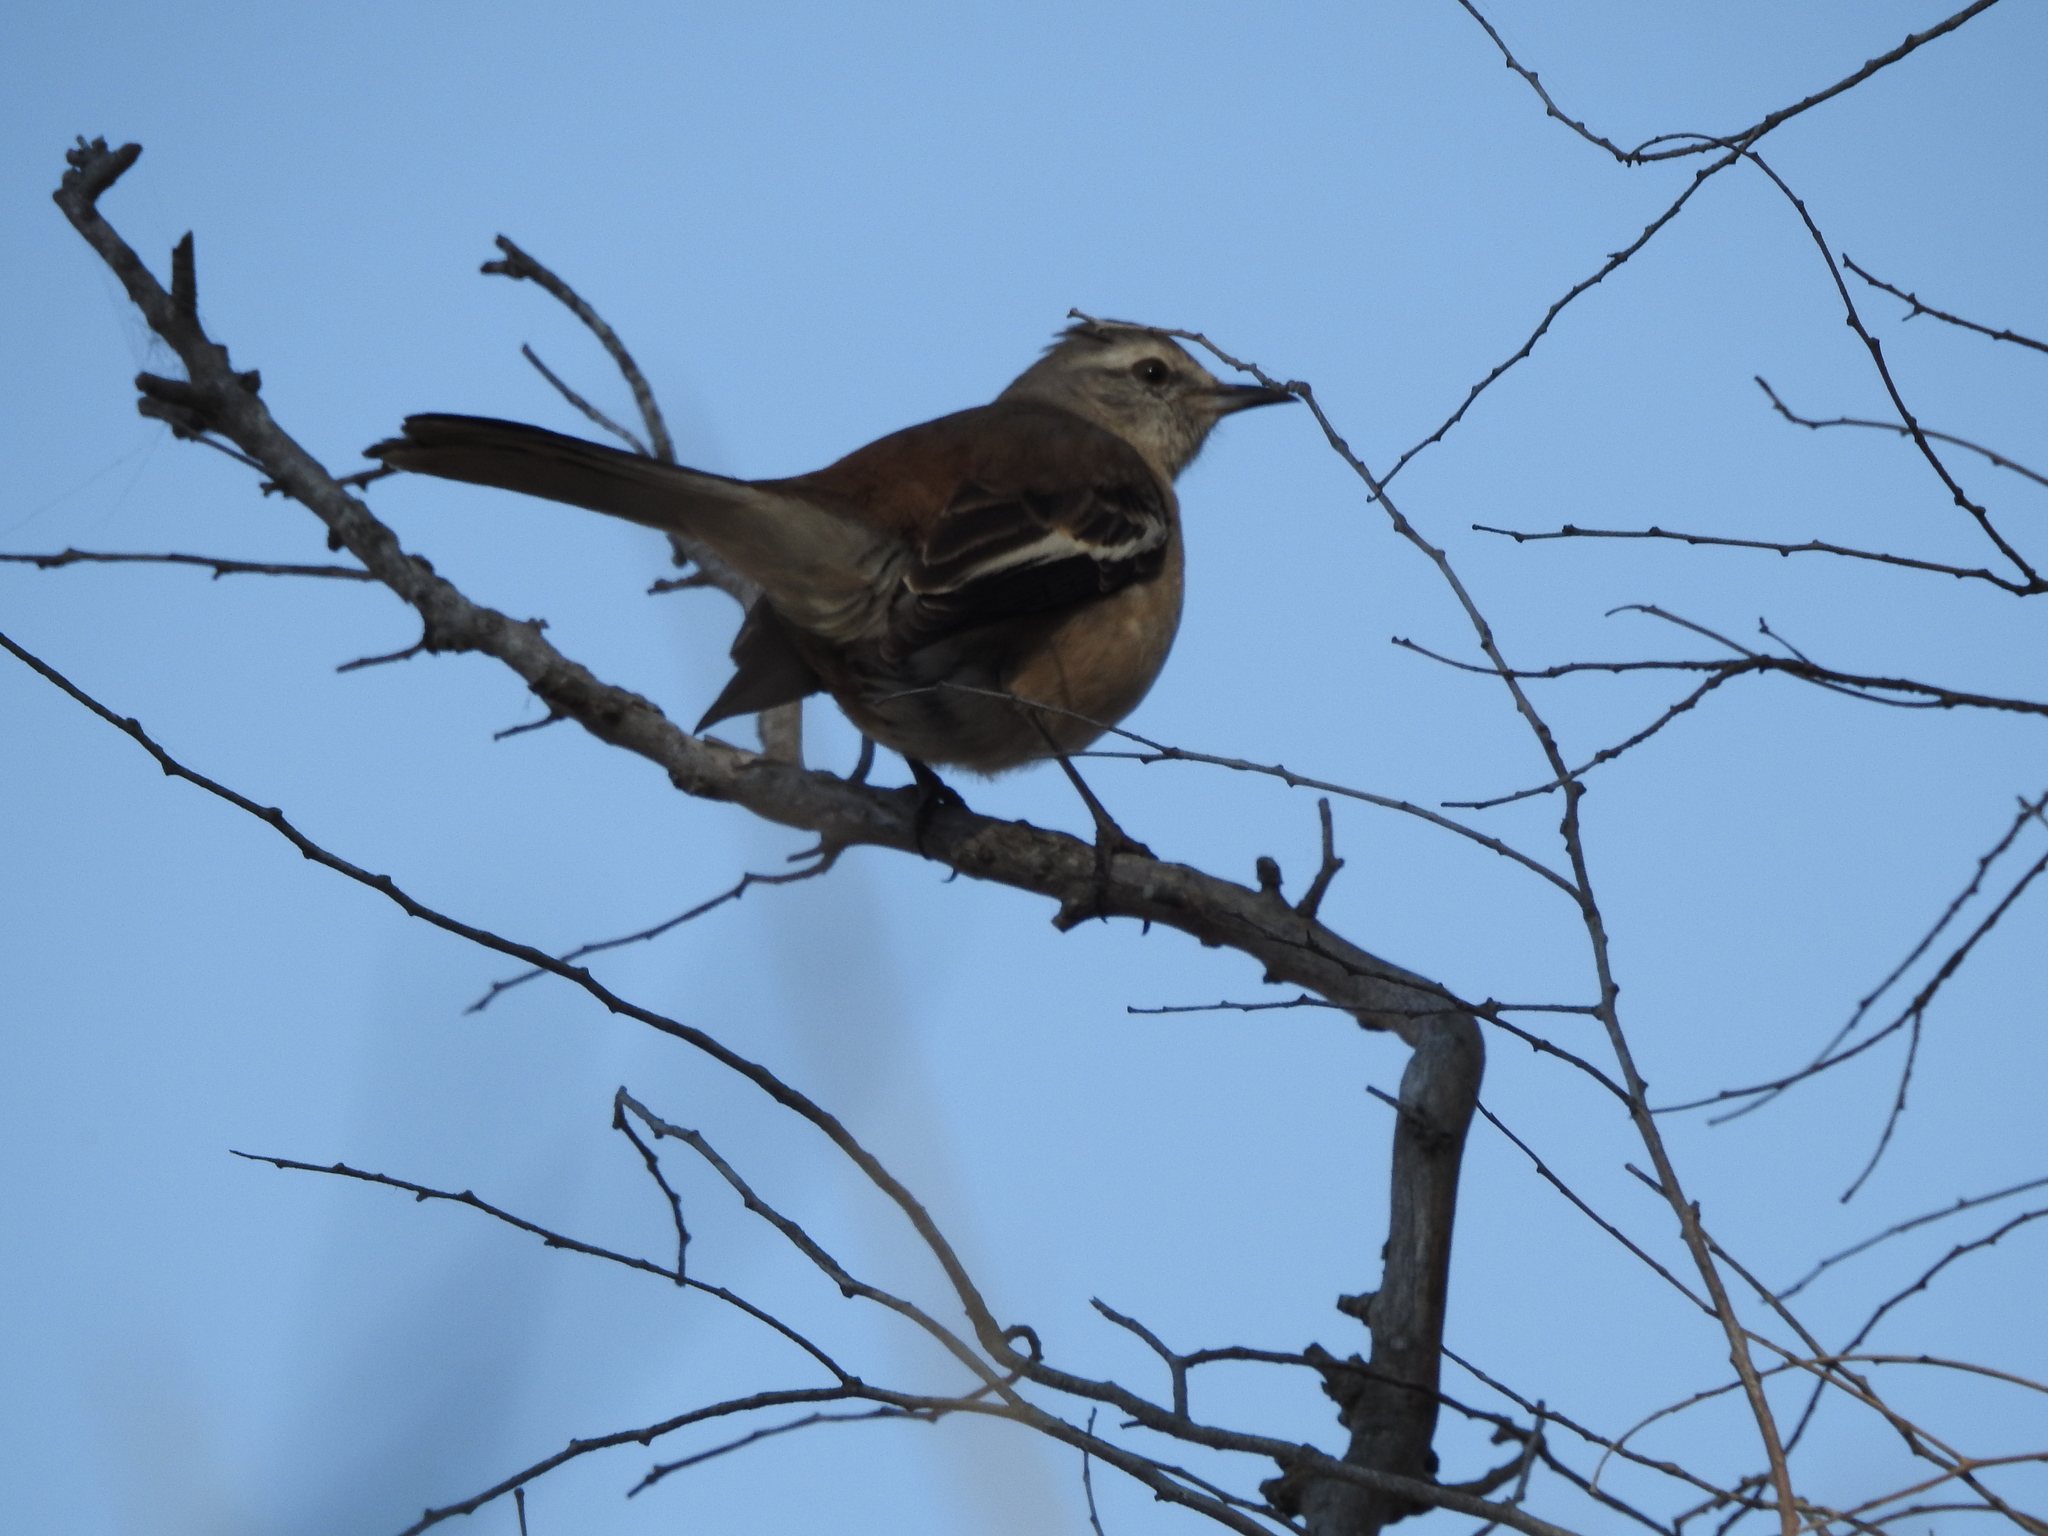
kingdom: Animalia
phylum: Chordata
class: Aves
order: Passeriformes
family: Mimidae
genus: Mimus
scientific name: Mimus triurus
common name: White-banded mockingbird
